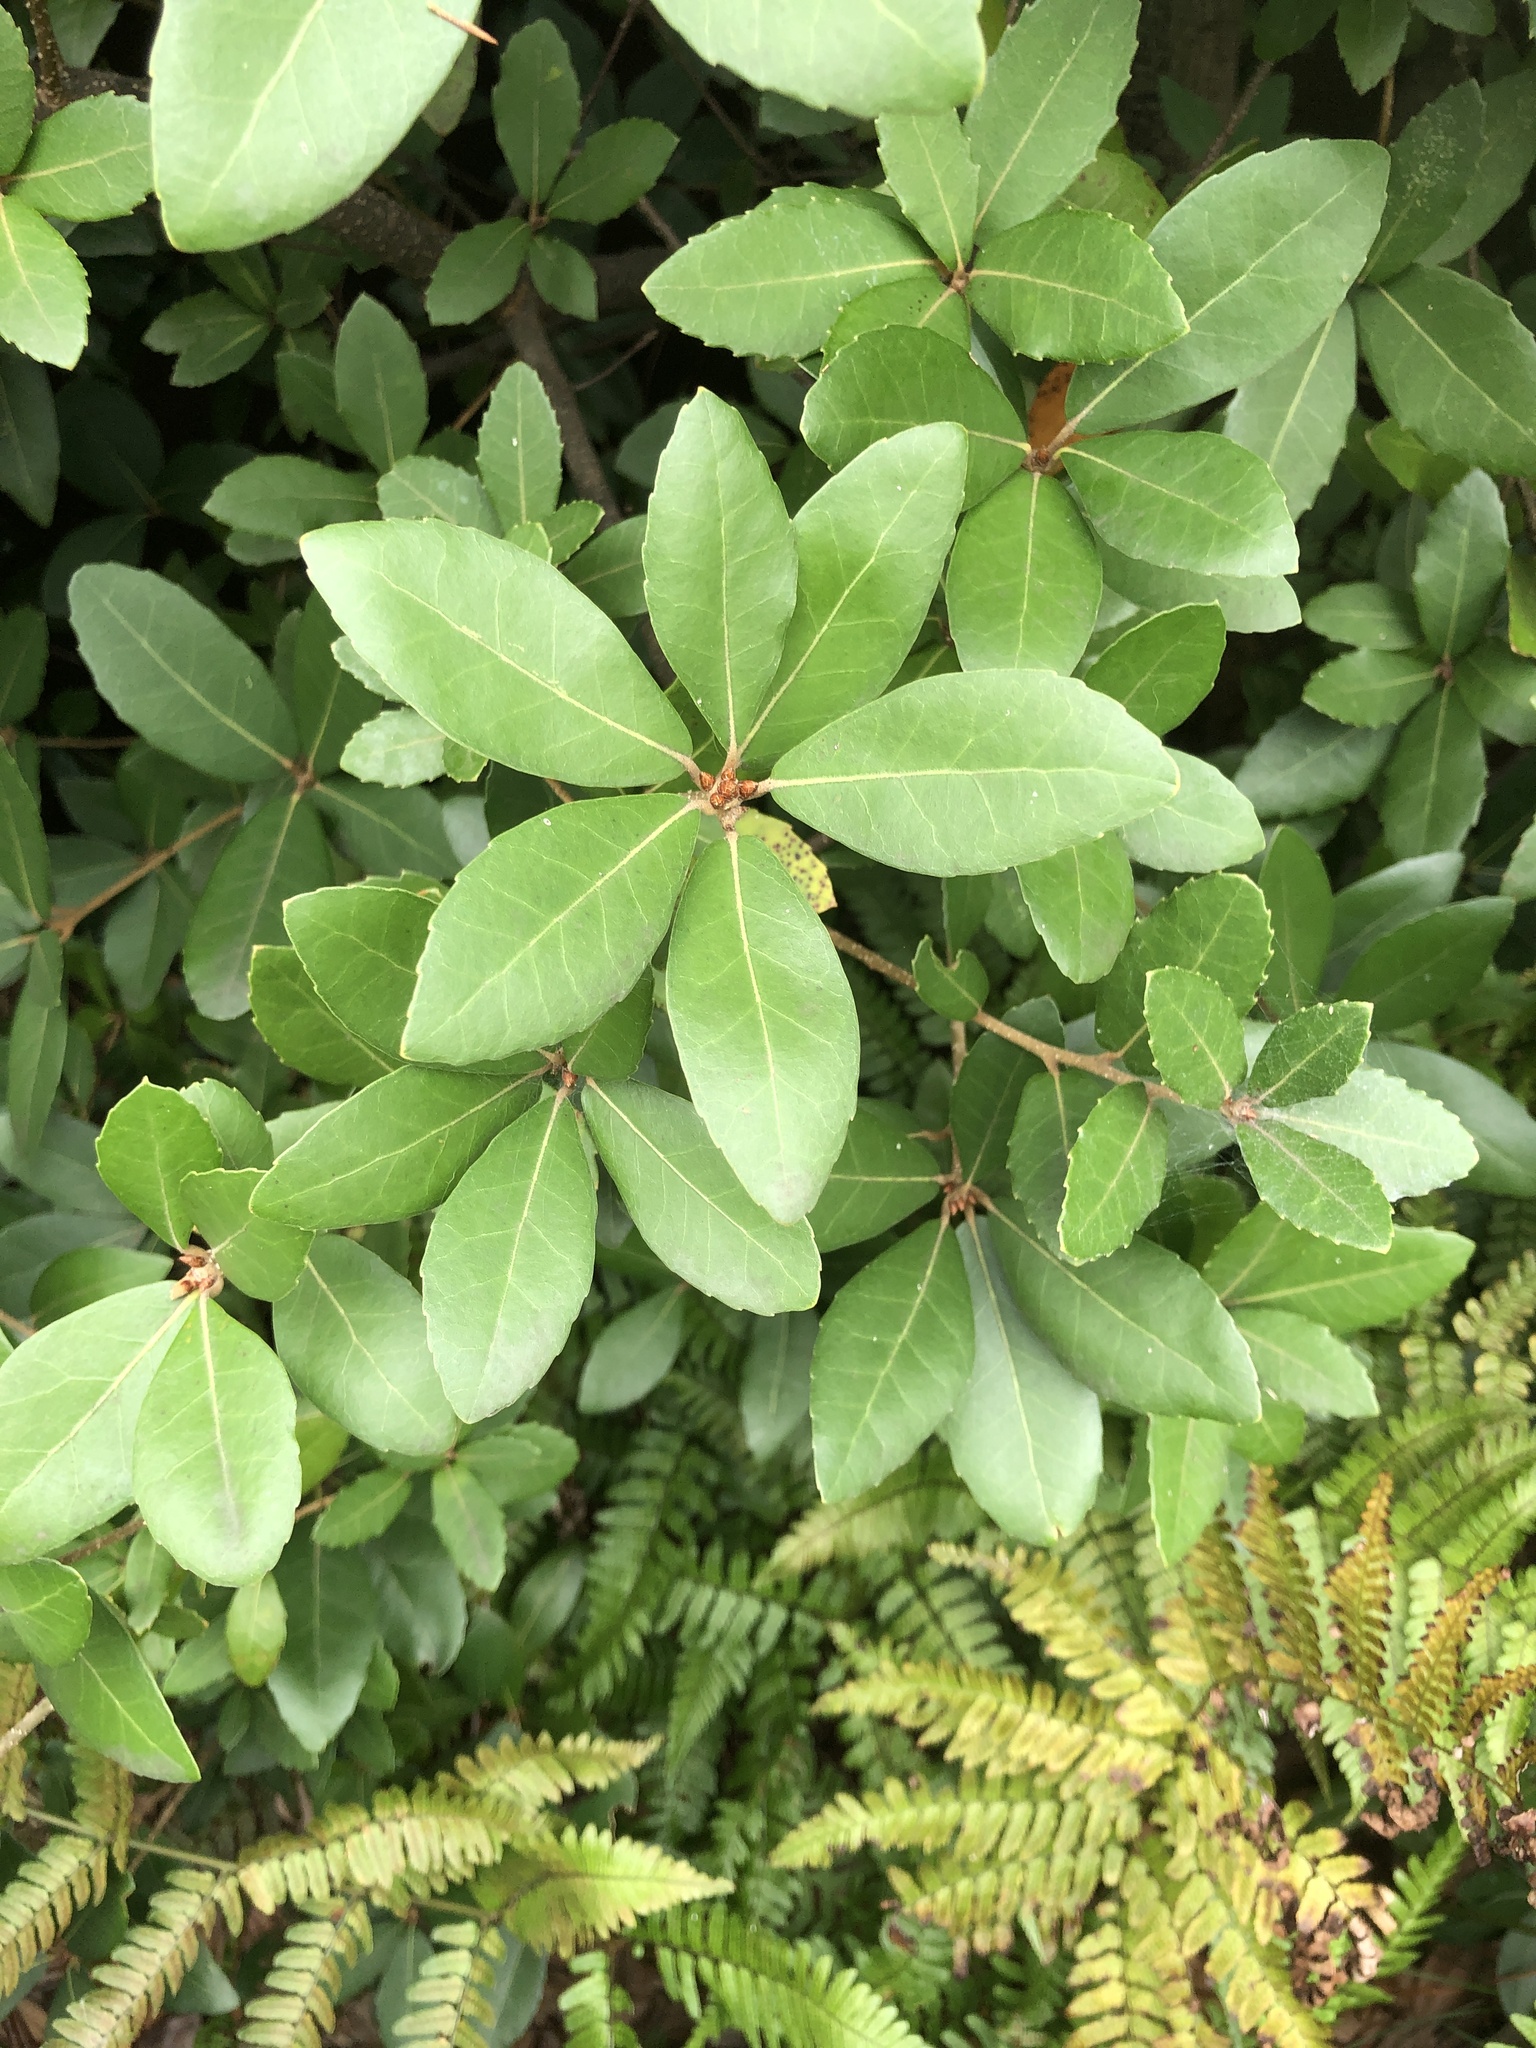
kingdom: Plantae
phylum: Tracheophyta
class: Magnoliopsida
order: Fagales
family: Fagaceae
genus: Quercus
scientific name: Quercus phillyreoides
